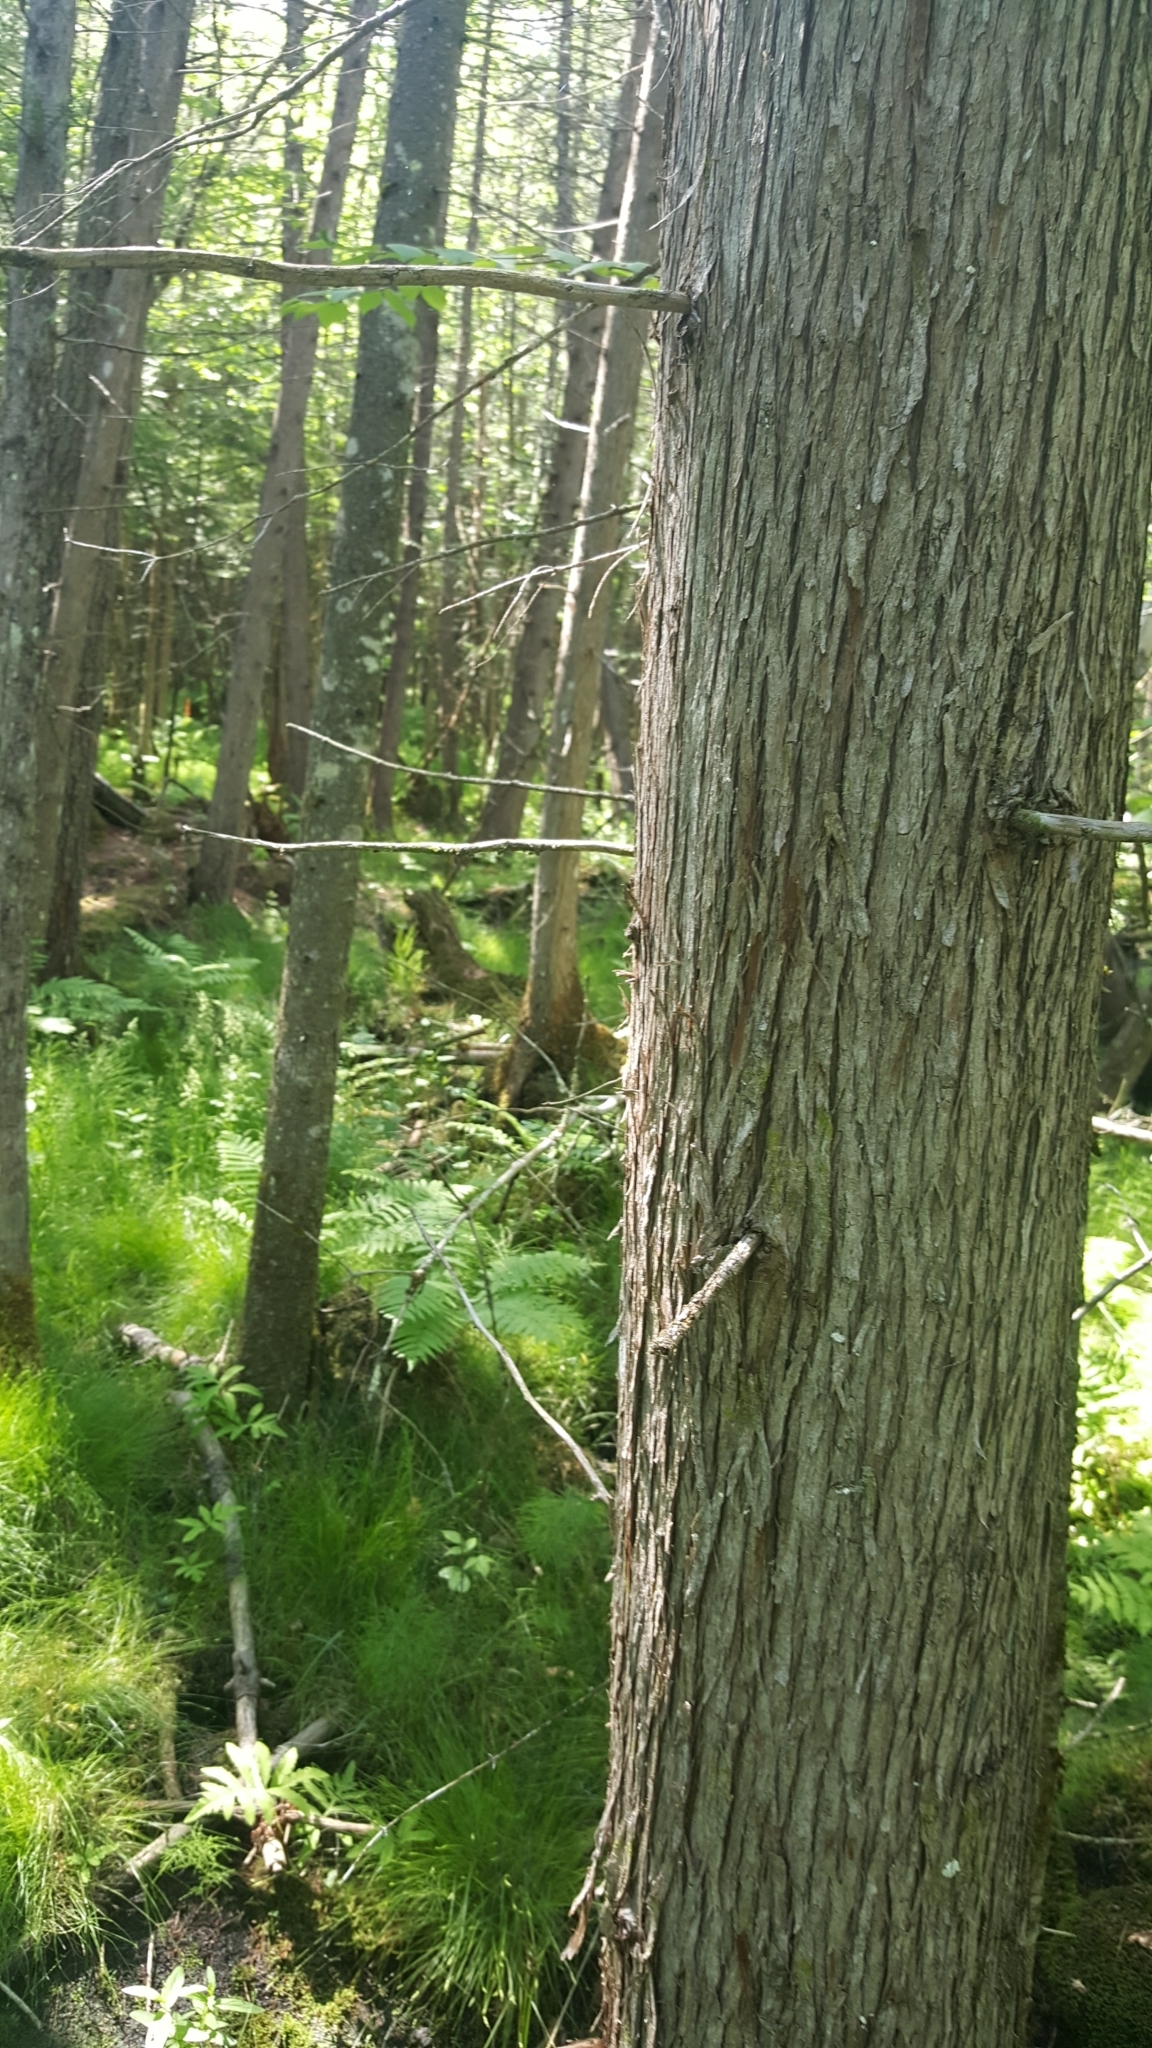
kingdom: Plantae
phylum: Tracheophyta
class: Pinopsida
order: Pinales
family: Cupressaceae
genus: Thuja
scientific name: Thuja occidentalis
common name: Northern white-cedar
